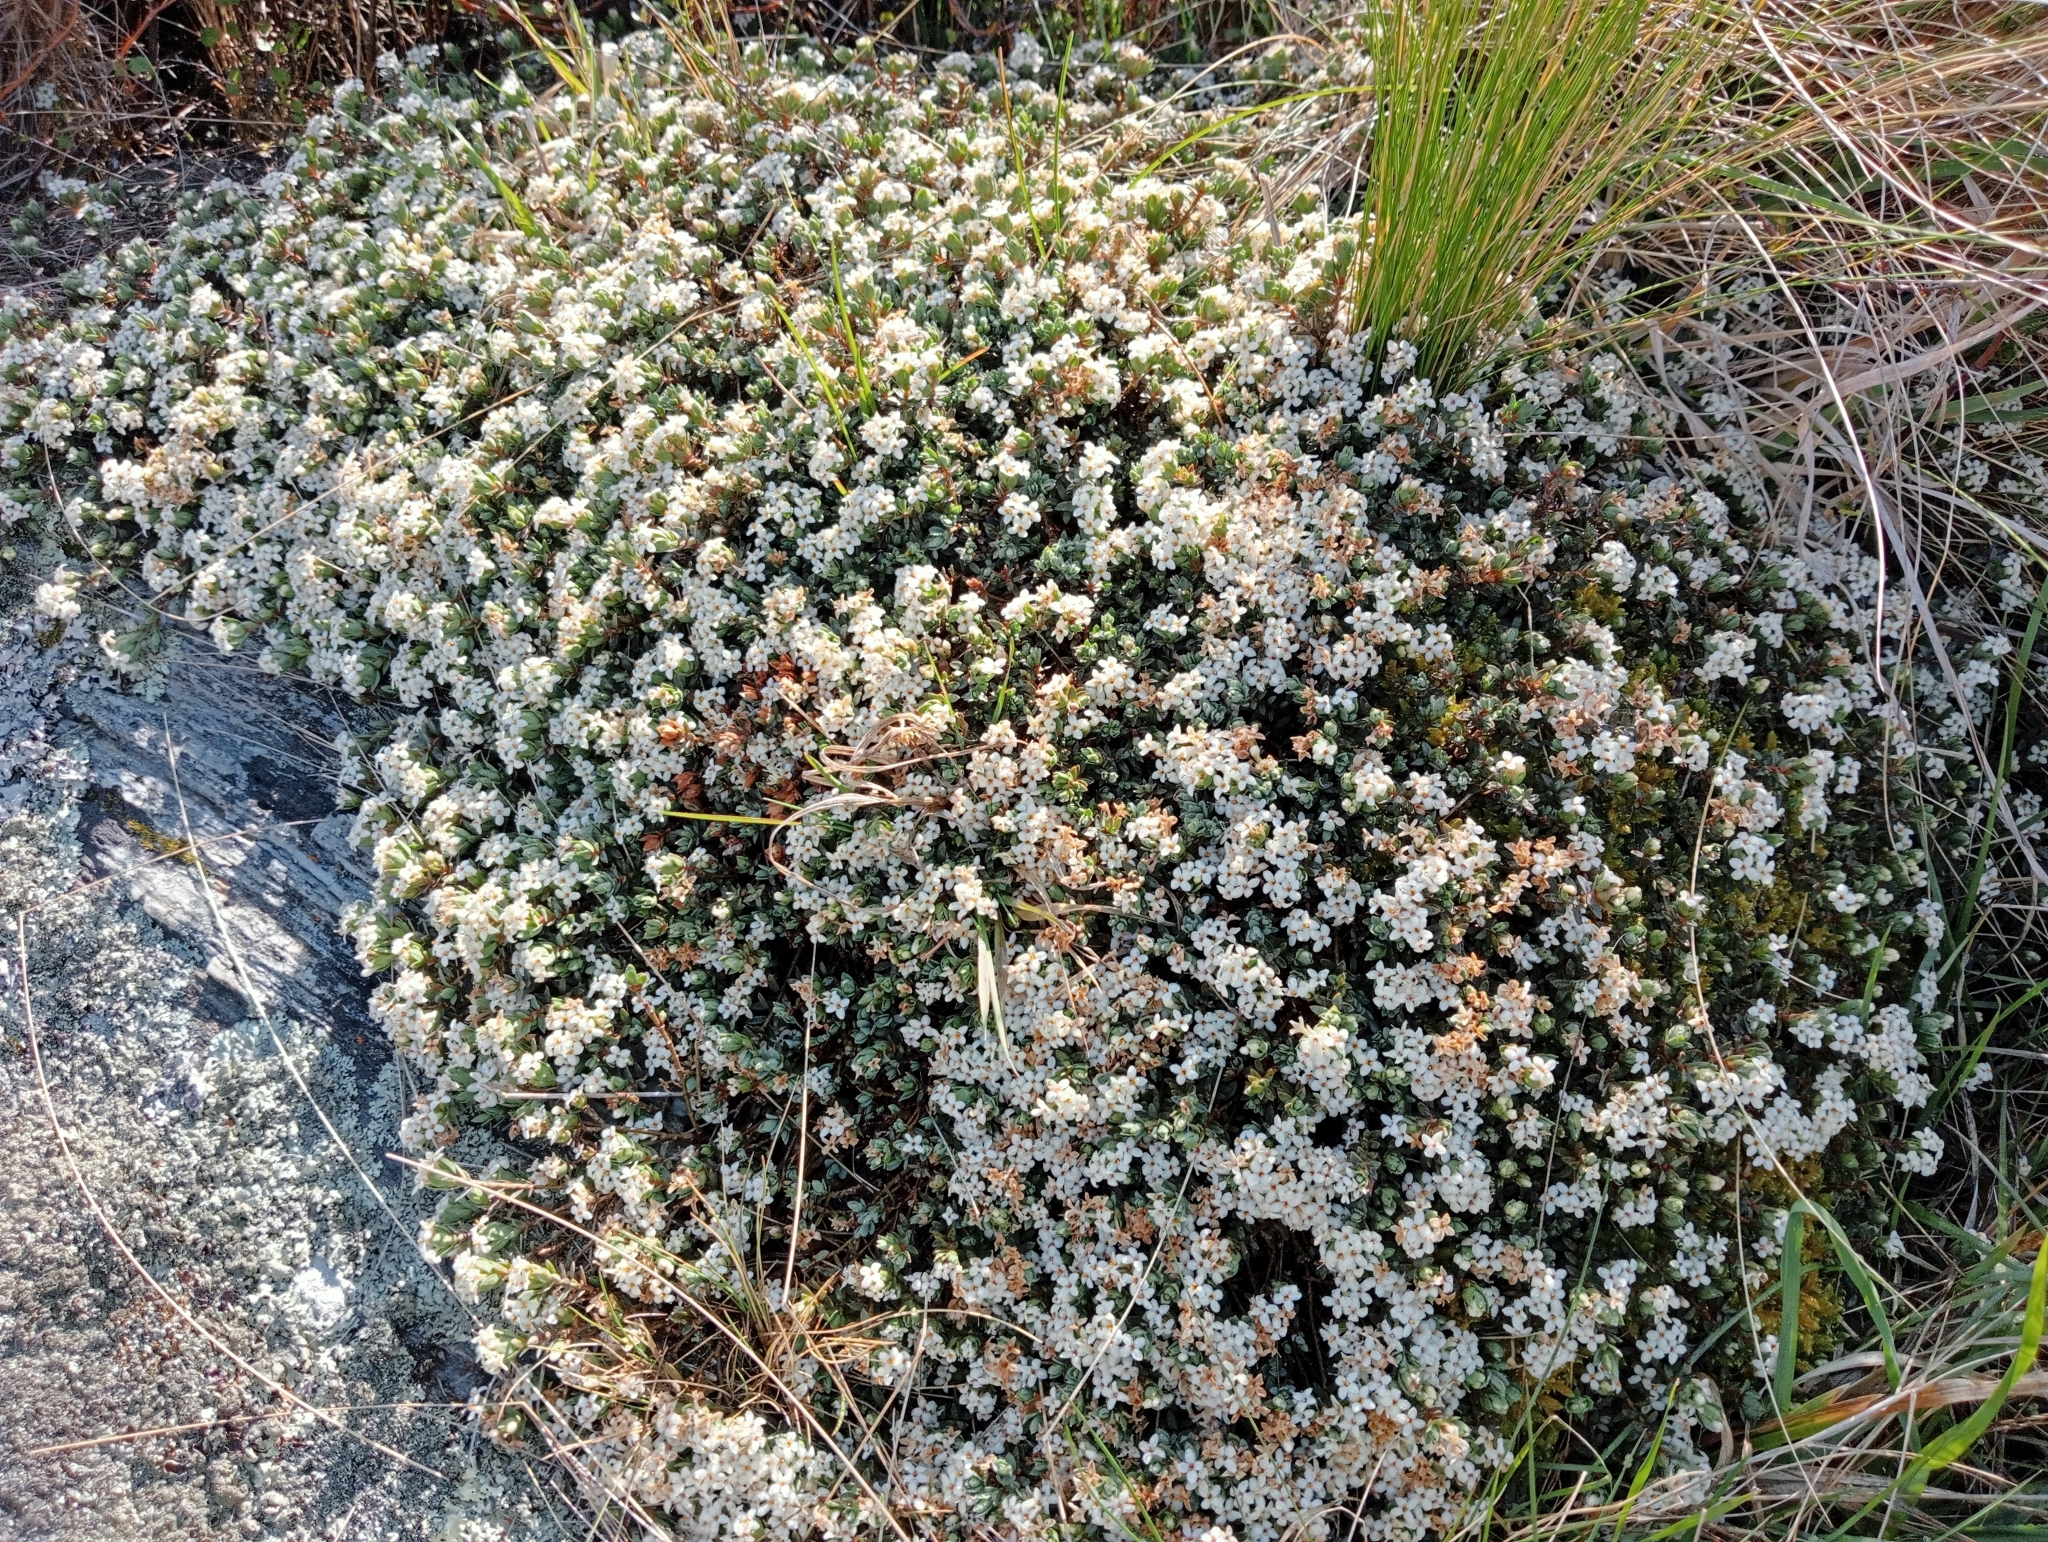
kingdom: Plantae
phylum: Tracheophyta
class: Magnoliopsida
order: Malvales
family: Thymelaeaceae
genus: Pimelea
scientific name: Pimelea oreophila
